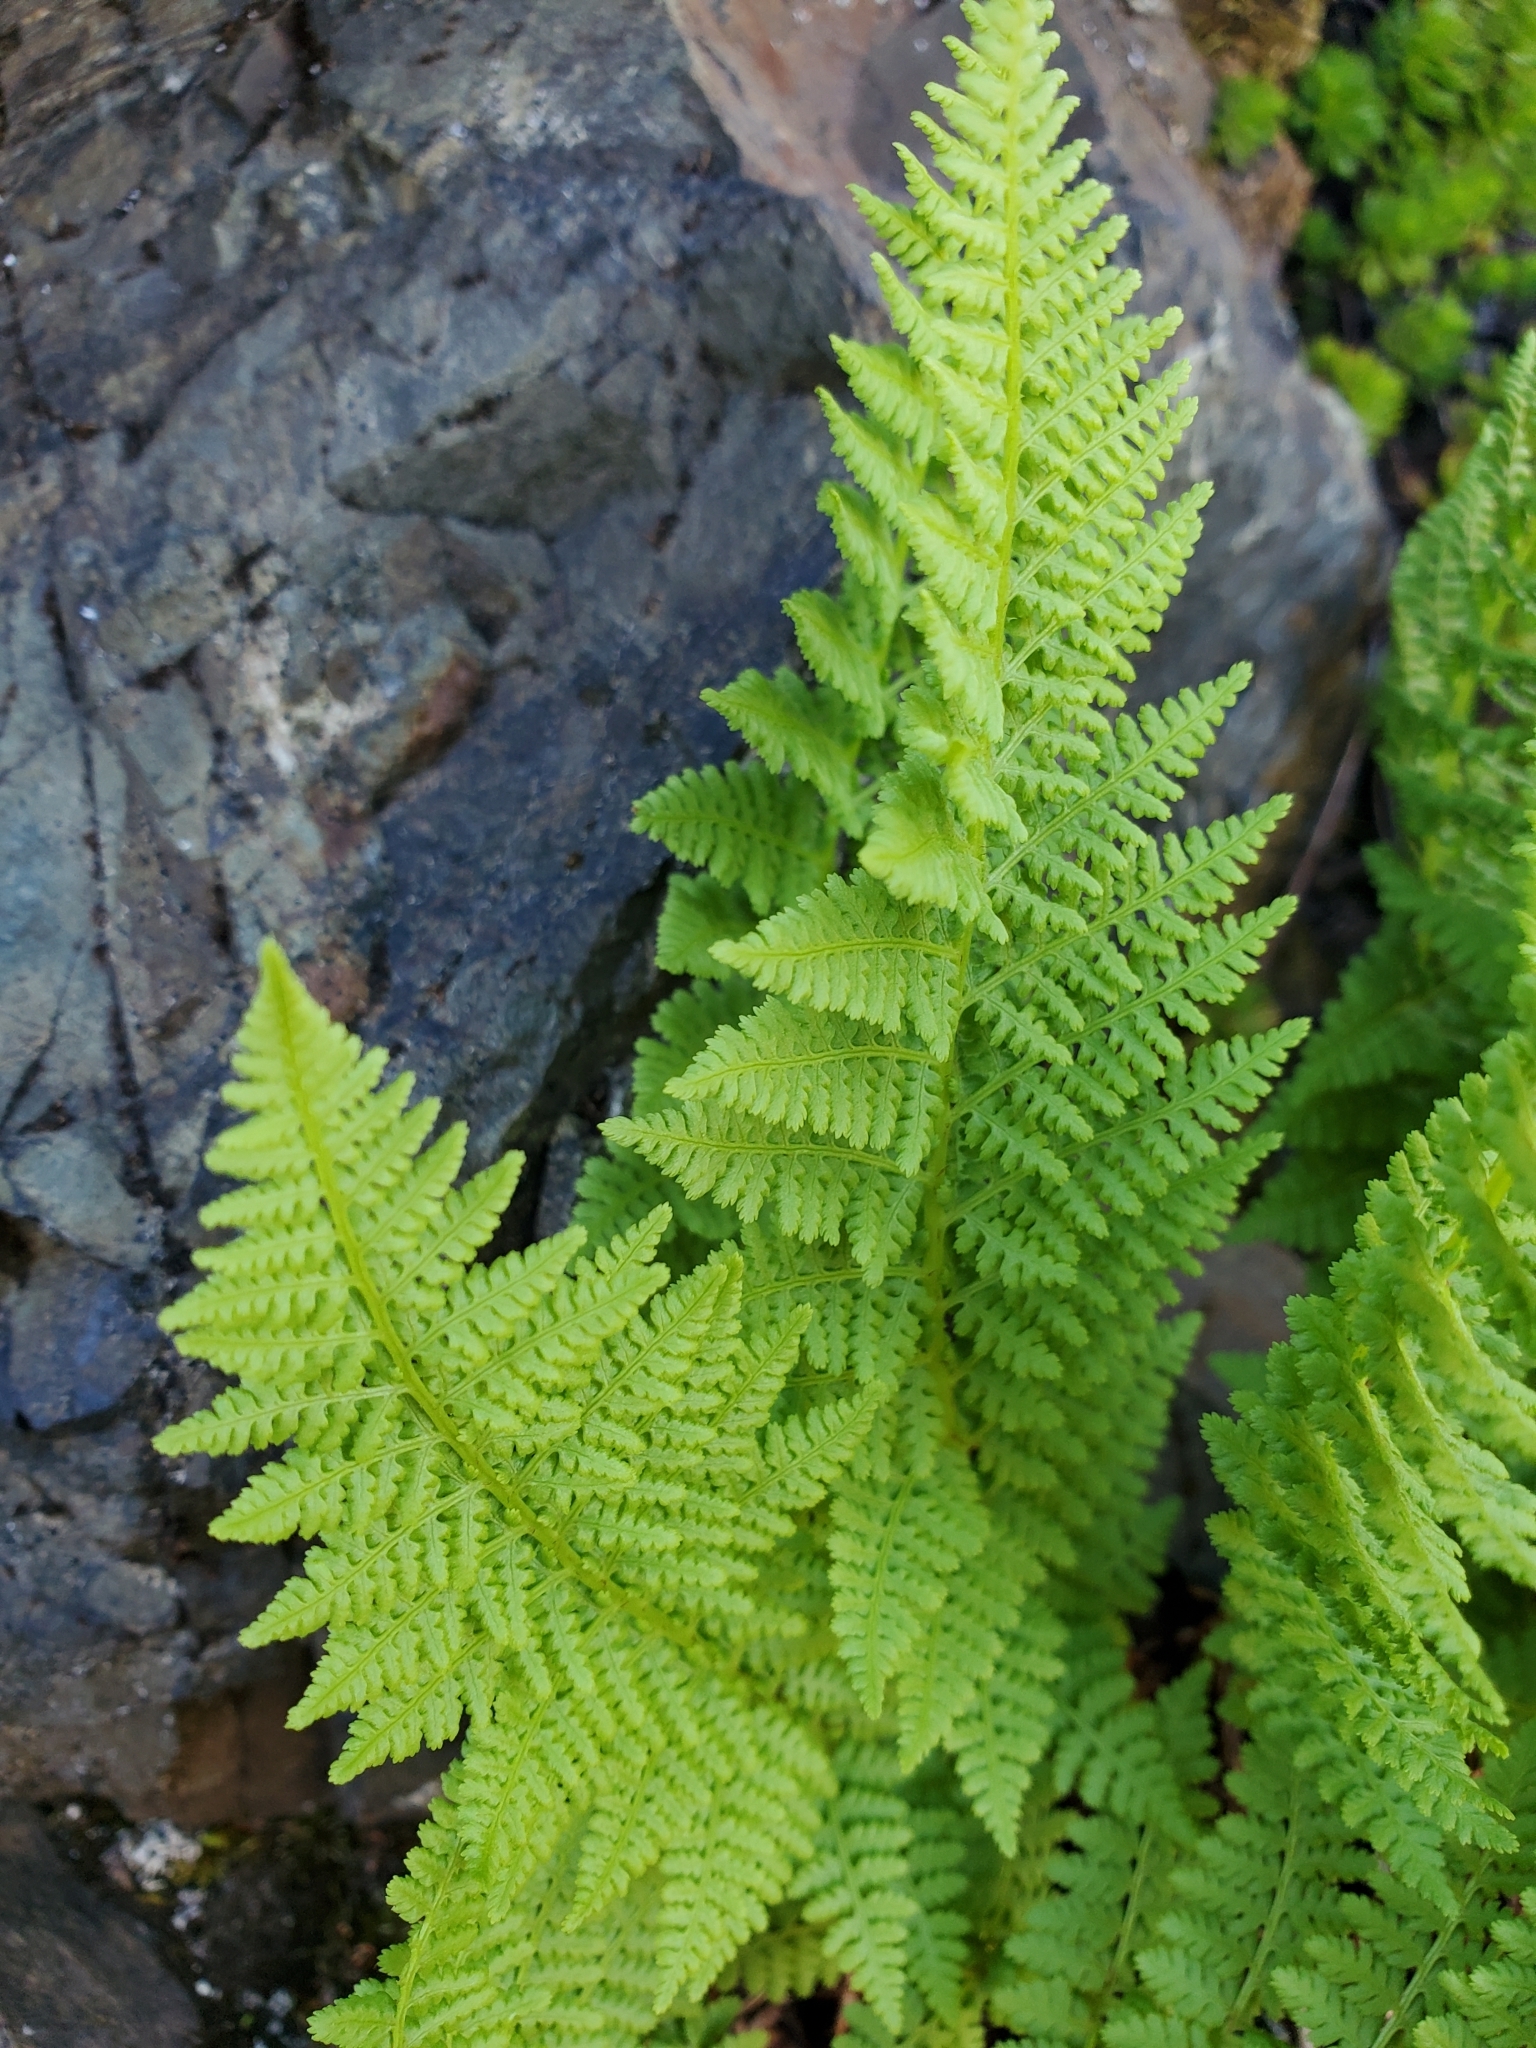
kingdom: Plantae
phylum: Tracheophyta
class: Polypodiopsida
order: Polypodiales
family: Athyriaceae
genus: Athyrium
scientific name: Athyrium americanum
